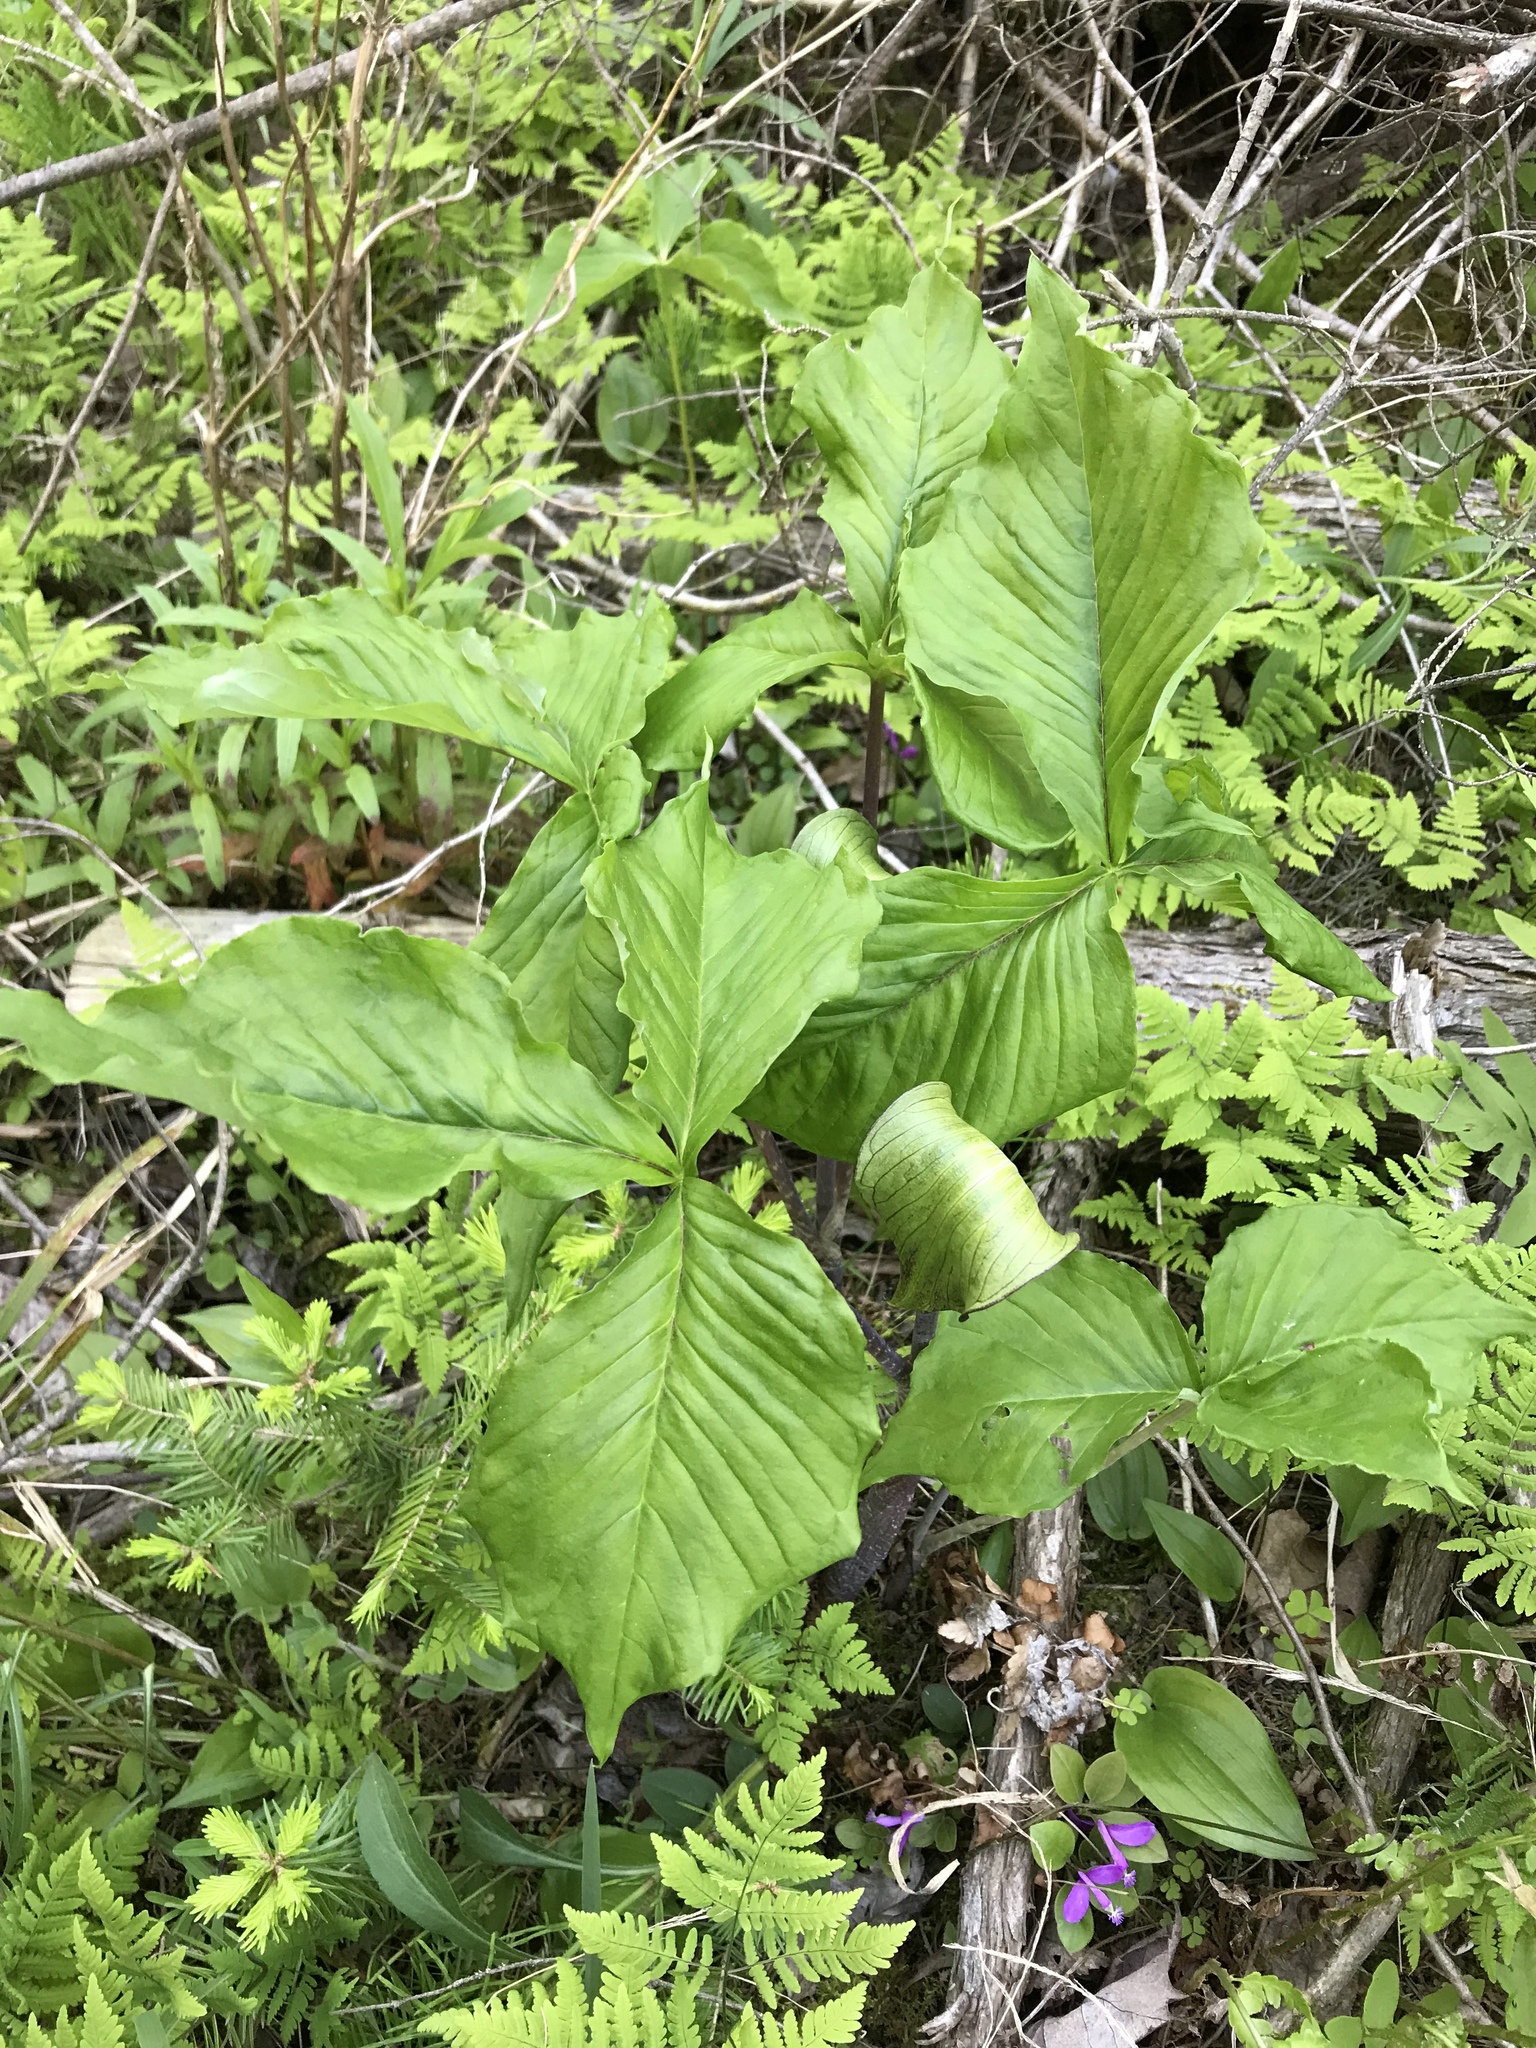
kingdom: Plantae
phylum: Tracheophyta
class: Liliopsida
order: Alismatales
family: Araceae
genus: Arisaema
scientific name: Arisaema triphyllum
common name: Jack-in-the-pulpit
